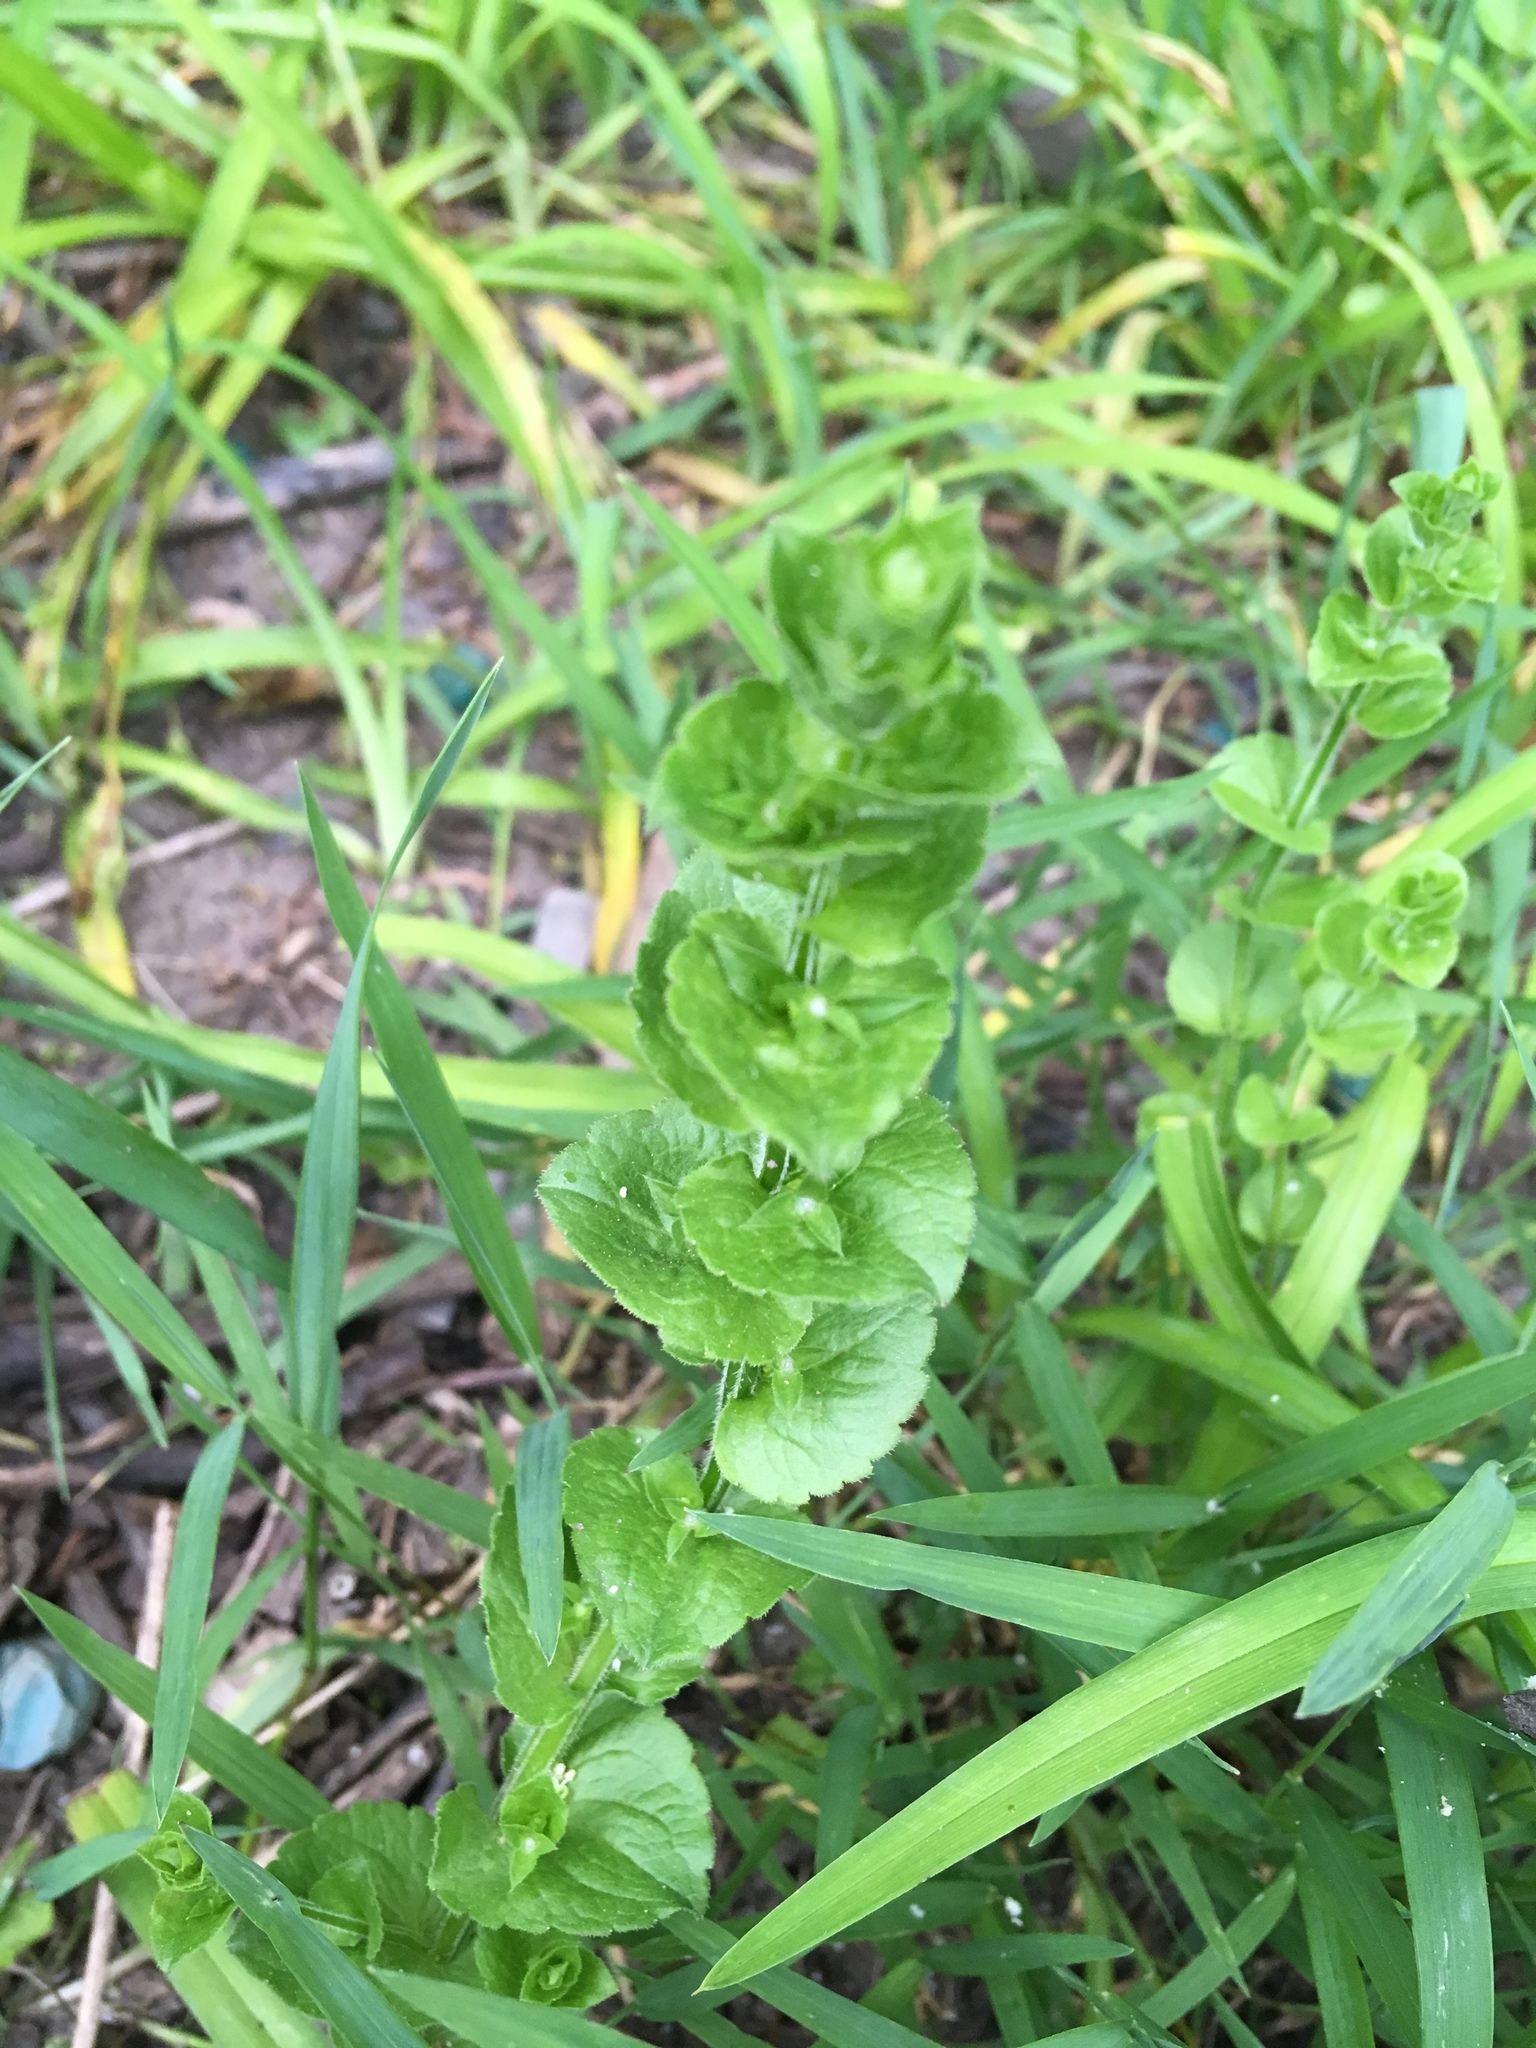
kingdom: Plantae
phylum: Tracheophyta
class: Magnoliopsida
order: Asterales
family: Campanulaceae
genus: Triodanis
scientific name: Triodanis perfoliata
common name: Clasping venus' looking-glass
